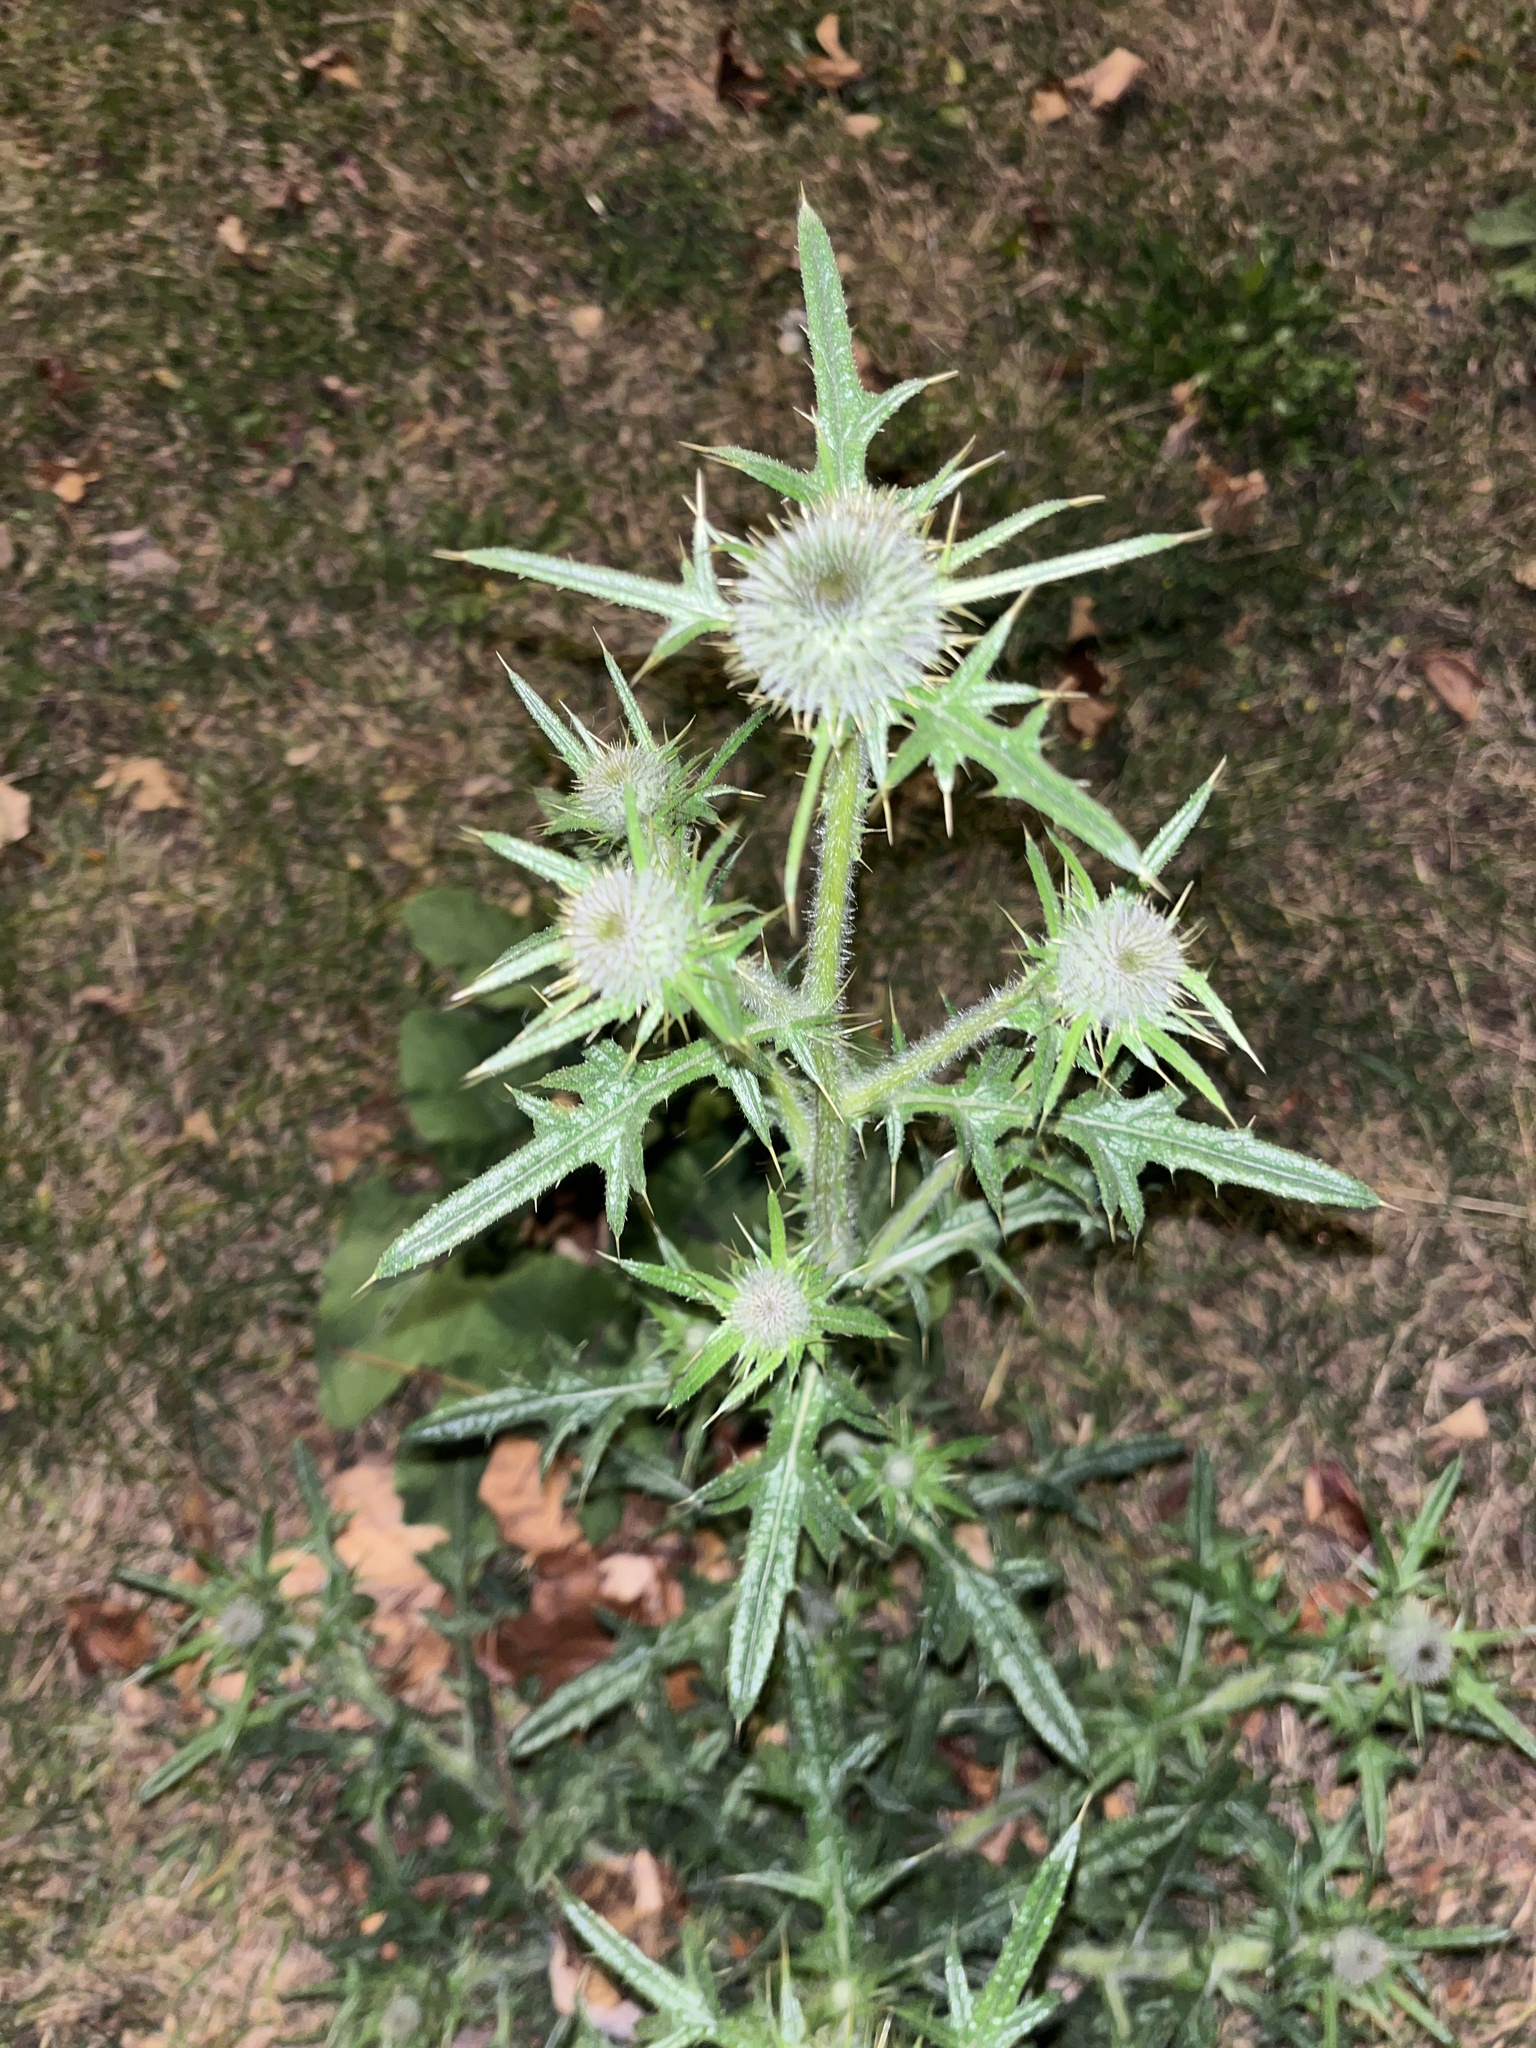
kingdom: Plantae
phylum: Tracheophyta
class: Magnoliopsida
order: Asterales
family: Asteraceae
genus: Cirsium
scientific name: Cirsium vulgare
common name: Bull thistle
